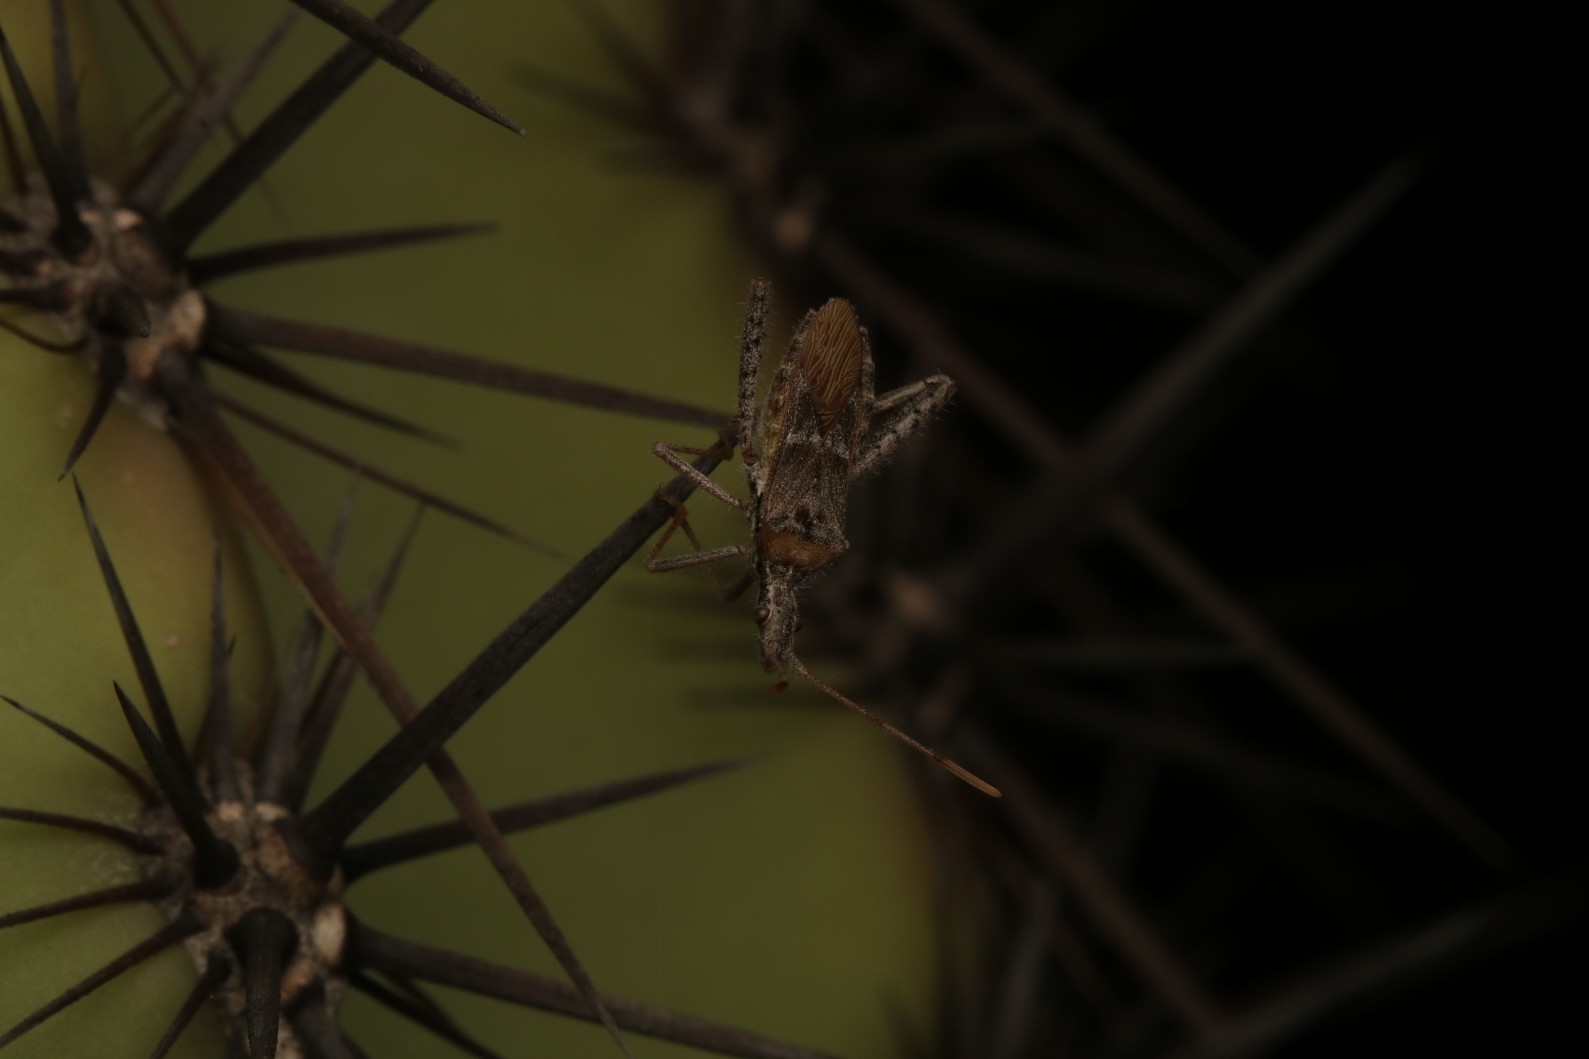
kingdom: Animalia
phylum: Arthropoda
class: Insecta
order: Hemiptera
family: Coreidae
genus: Narnia
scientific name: Narnia femorata
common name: Leaf-footed cactus bug
